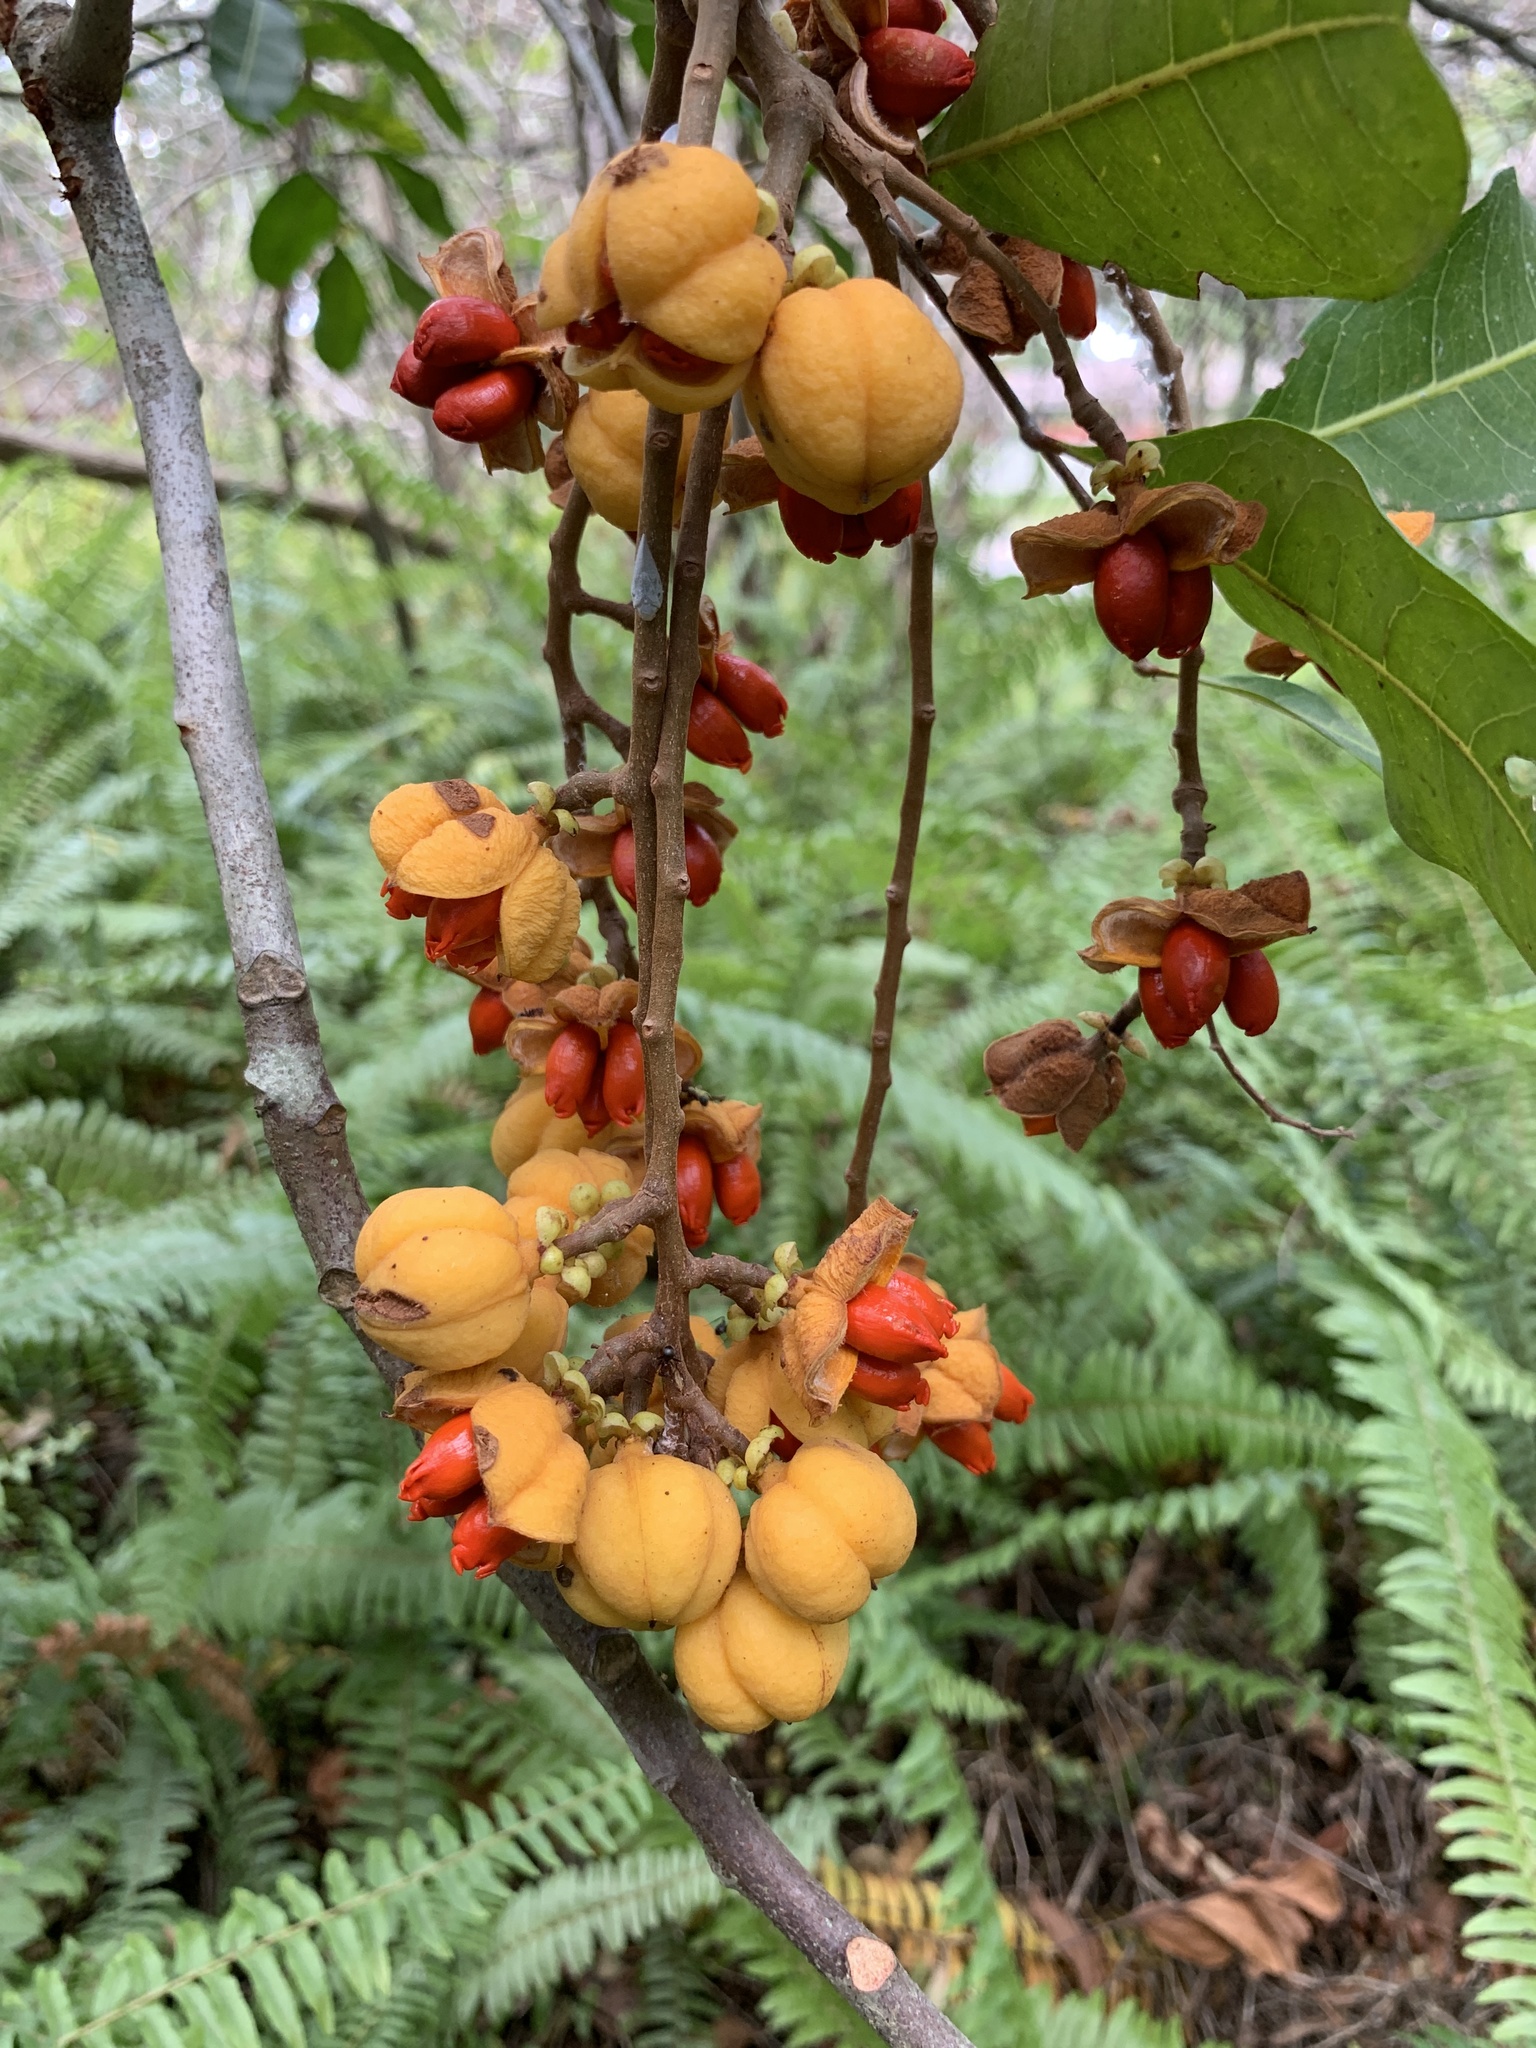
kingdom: Plantae
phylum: Tracheophyta
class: Magnoliopsida
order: Sapindales
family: Sapindaceae
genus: Cupaniopsis
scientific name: Cupaniopsis anacardioides
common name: Carrotwood
